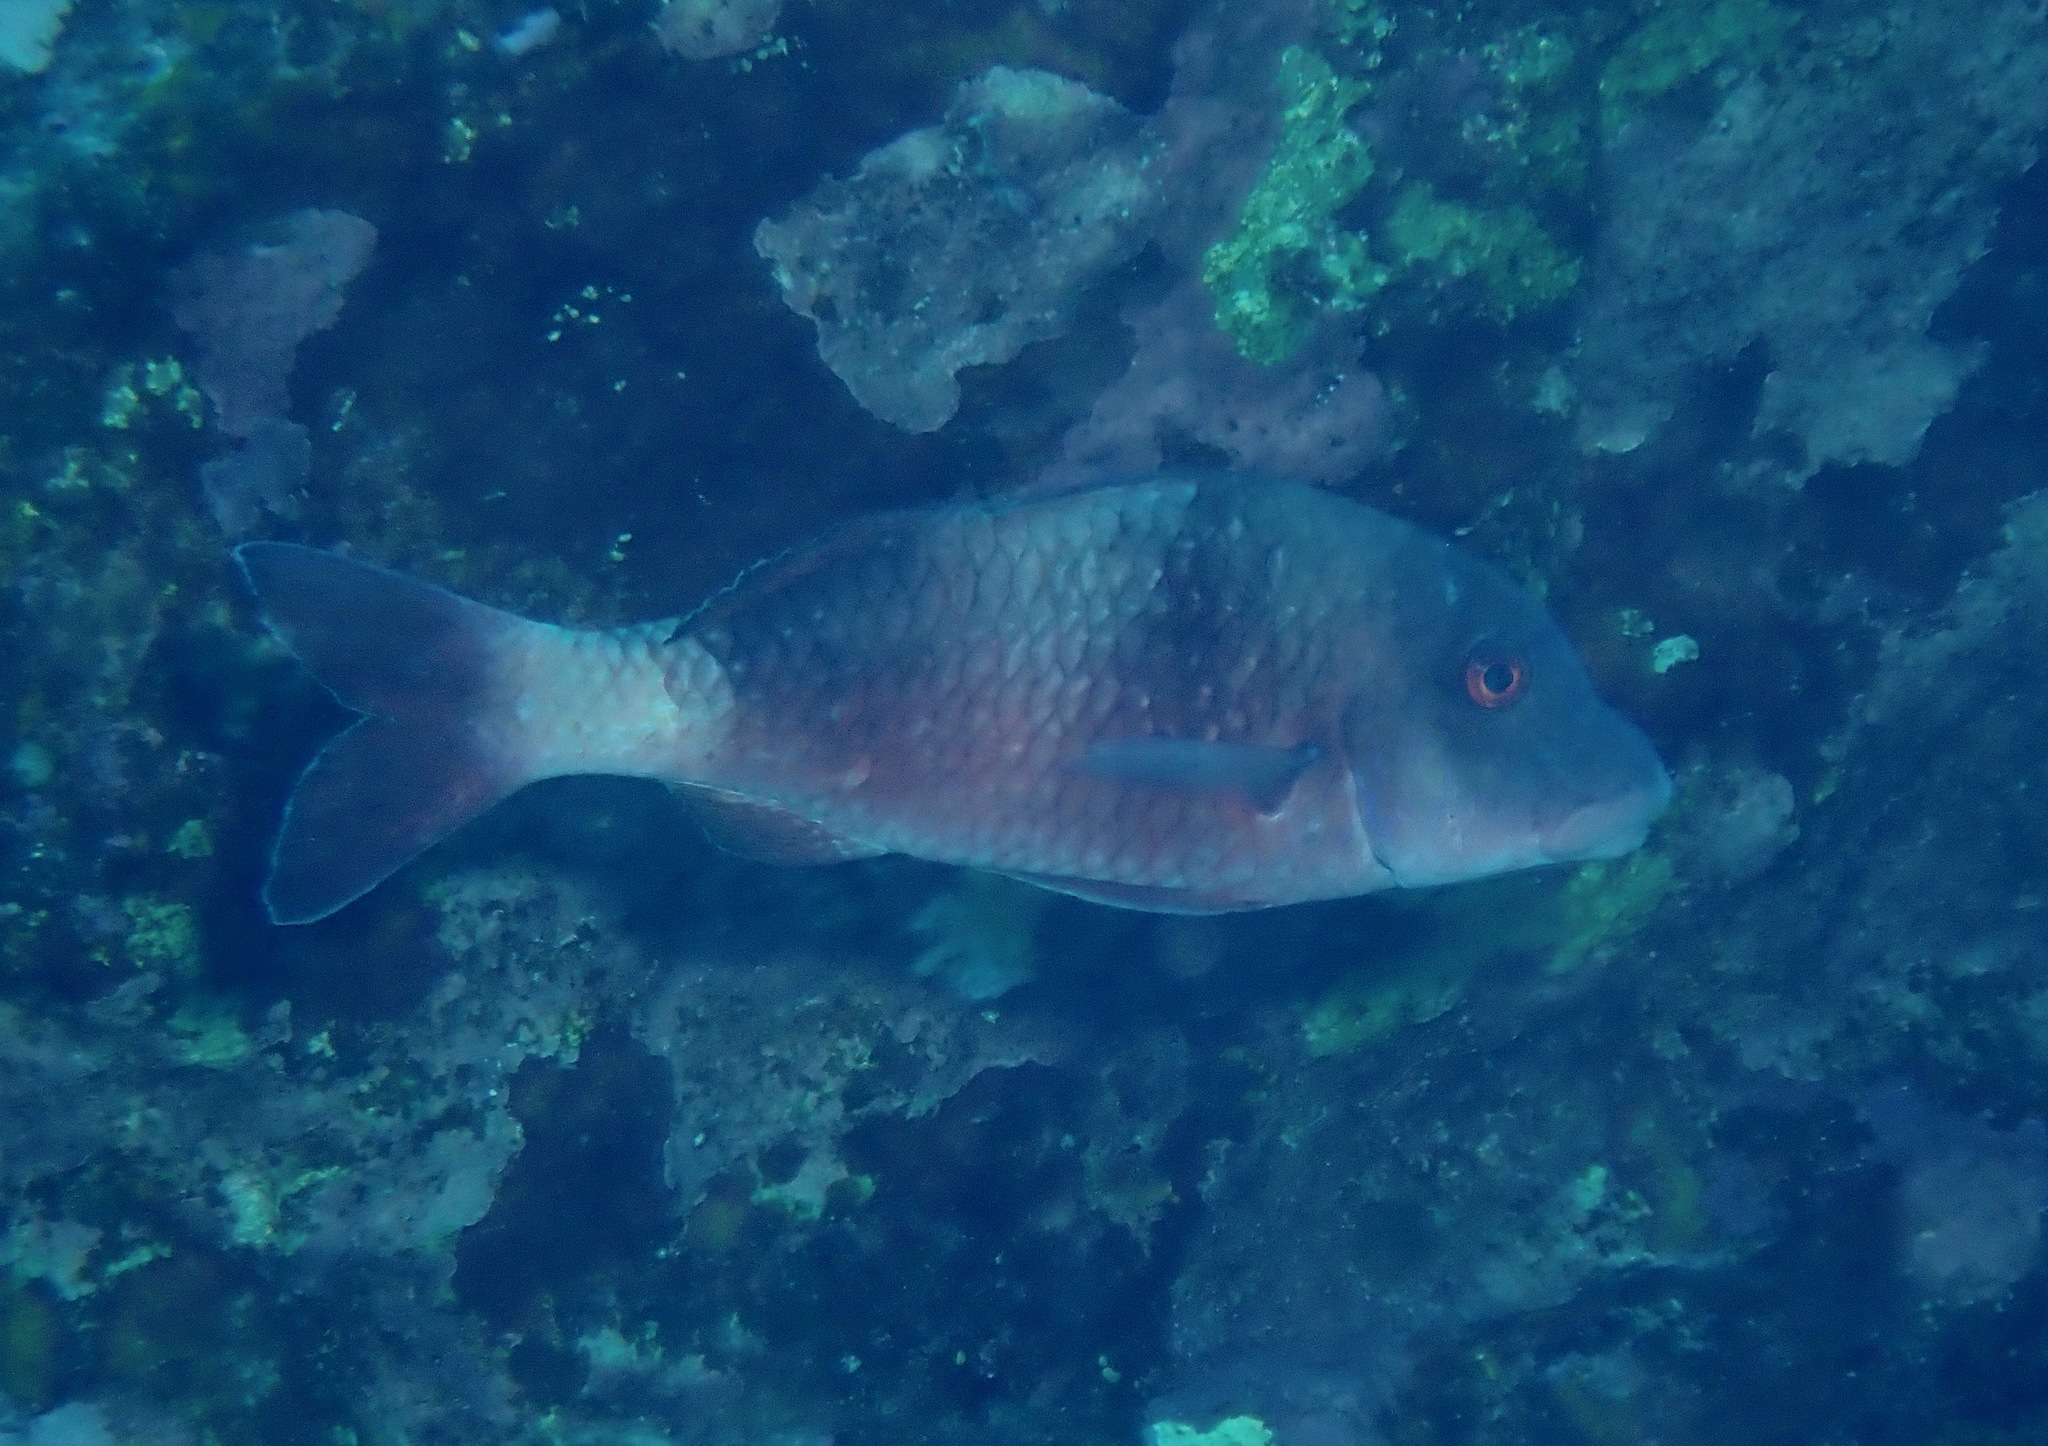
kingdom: Animalia
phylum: Chordata
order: Perciformes
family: Mullidae
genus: Parupeneus
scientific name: Parupeneus insularis
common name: Doublebar goatfish
